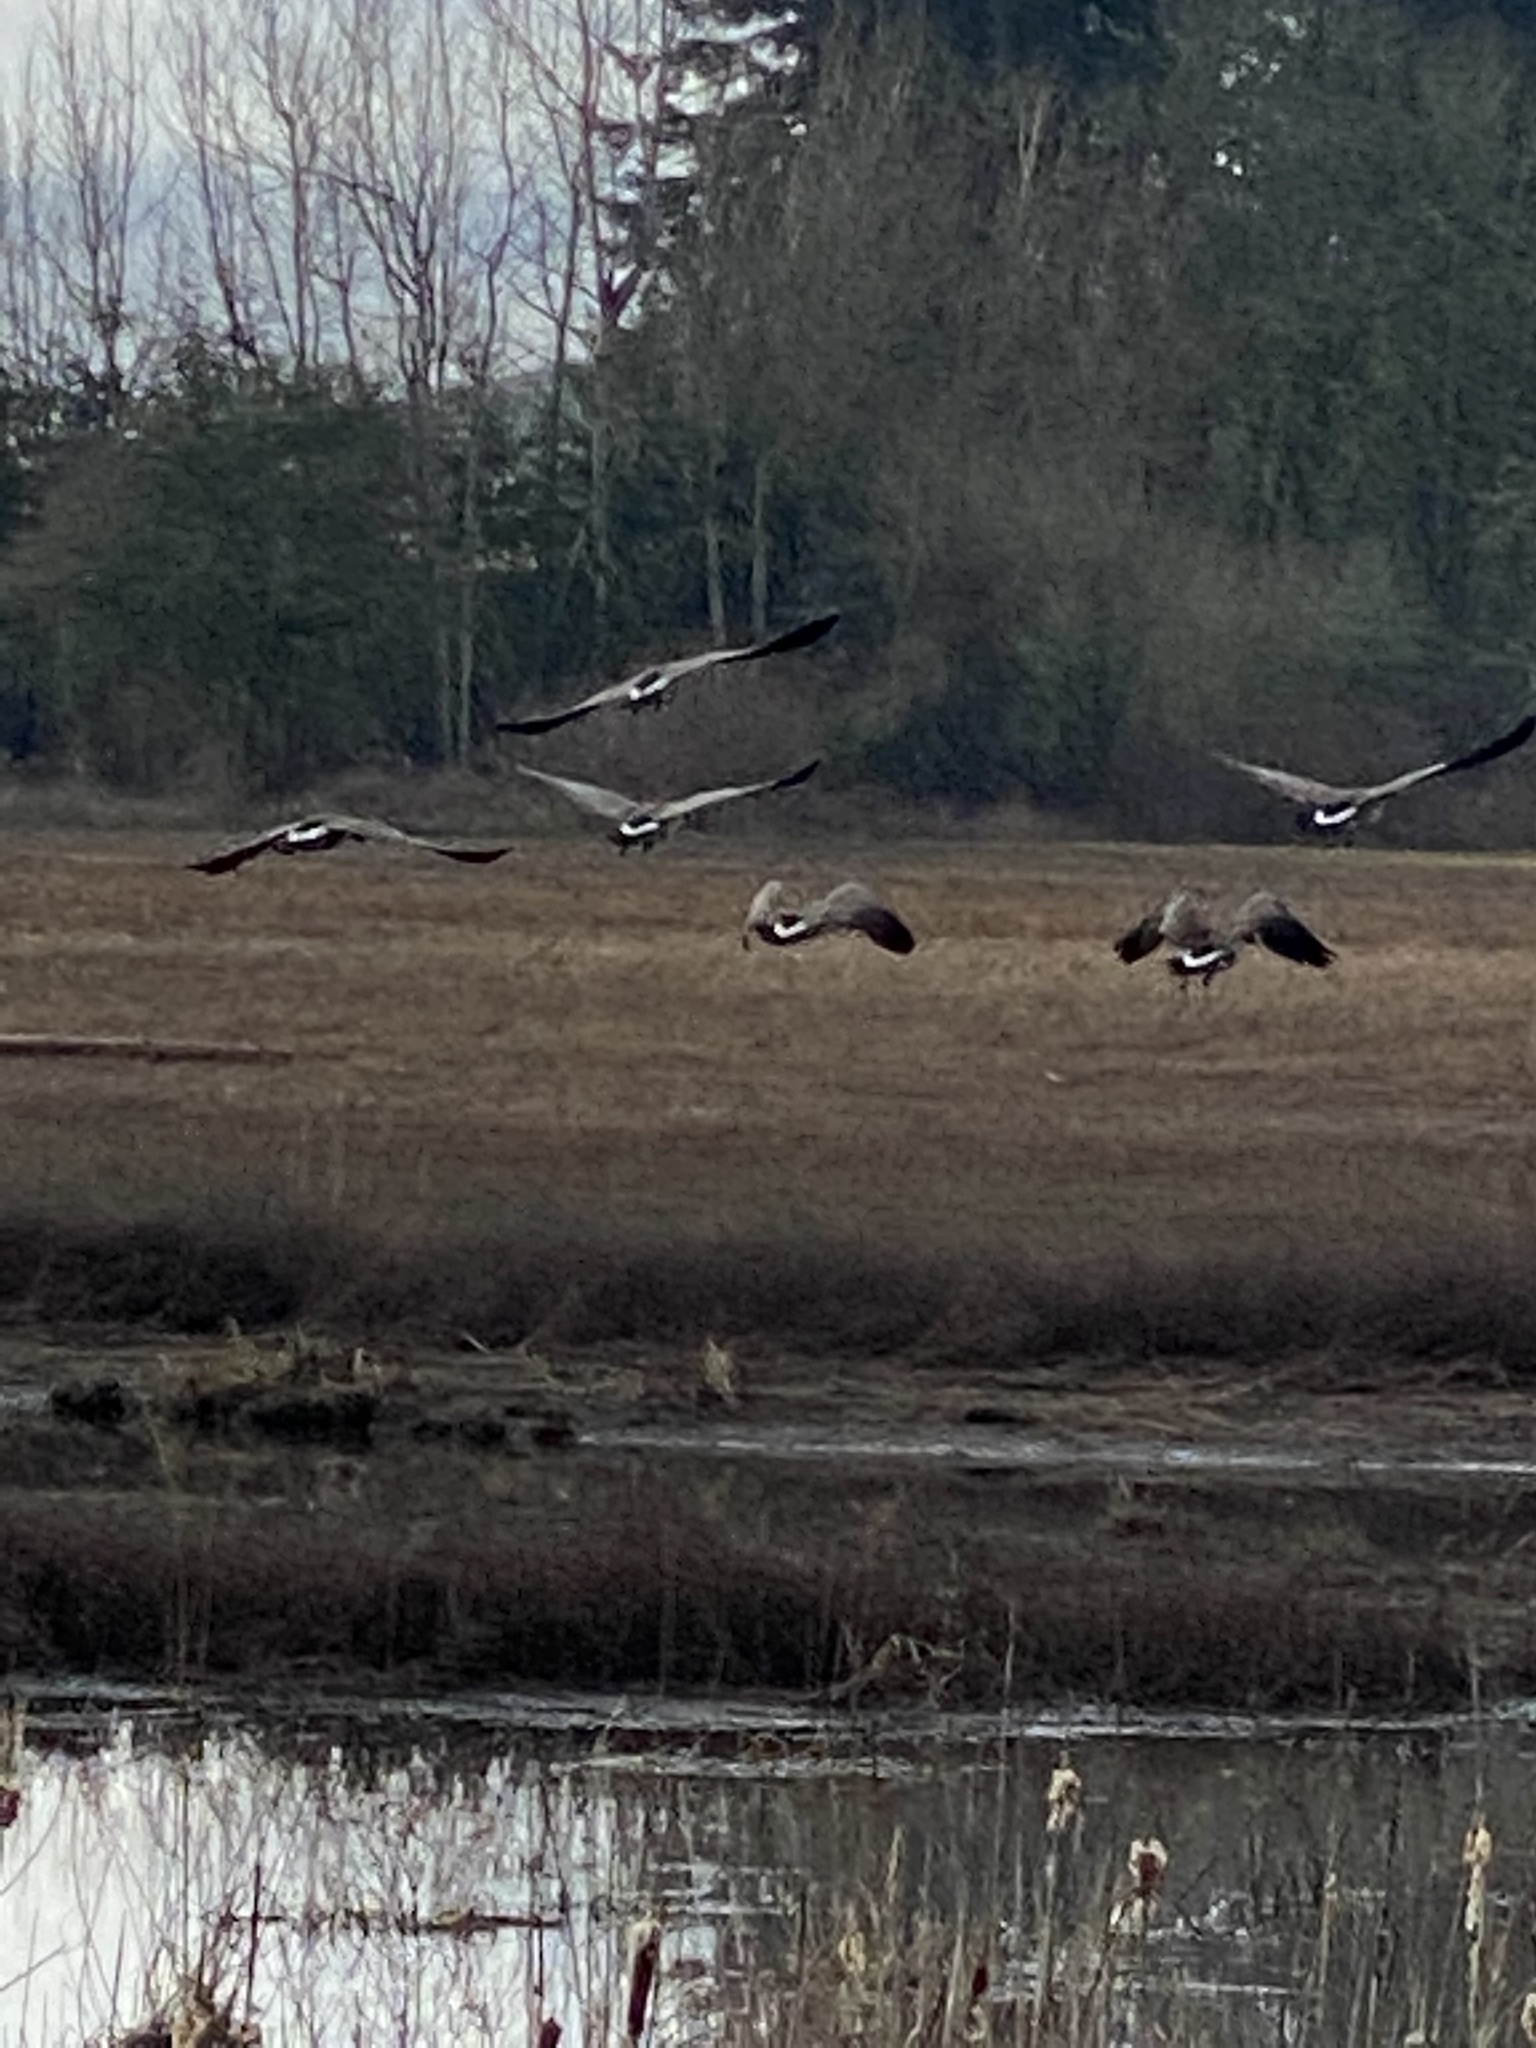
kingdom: Animalia
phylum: Chordata
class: Aves
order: Anseriformes
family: Anatidae
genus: Branta
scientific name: Branta canadensis
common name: Canada goose
